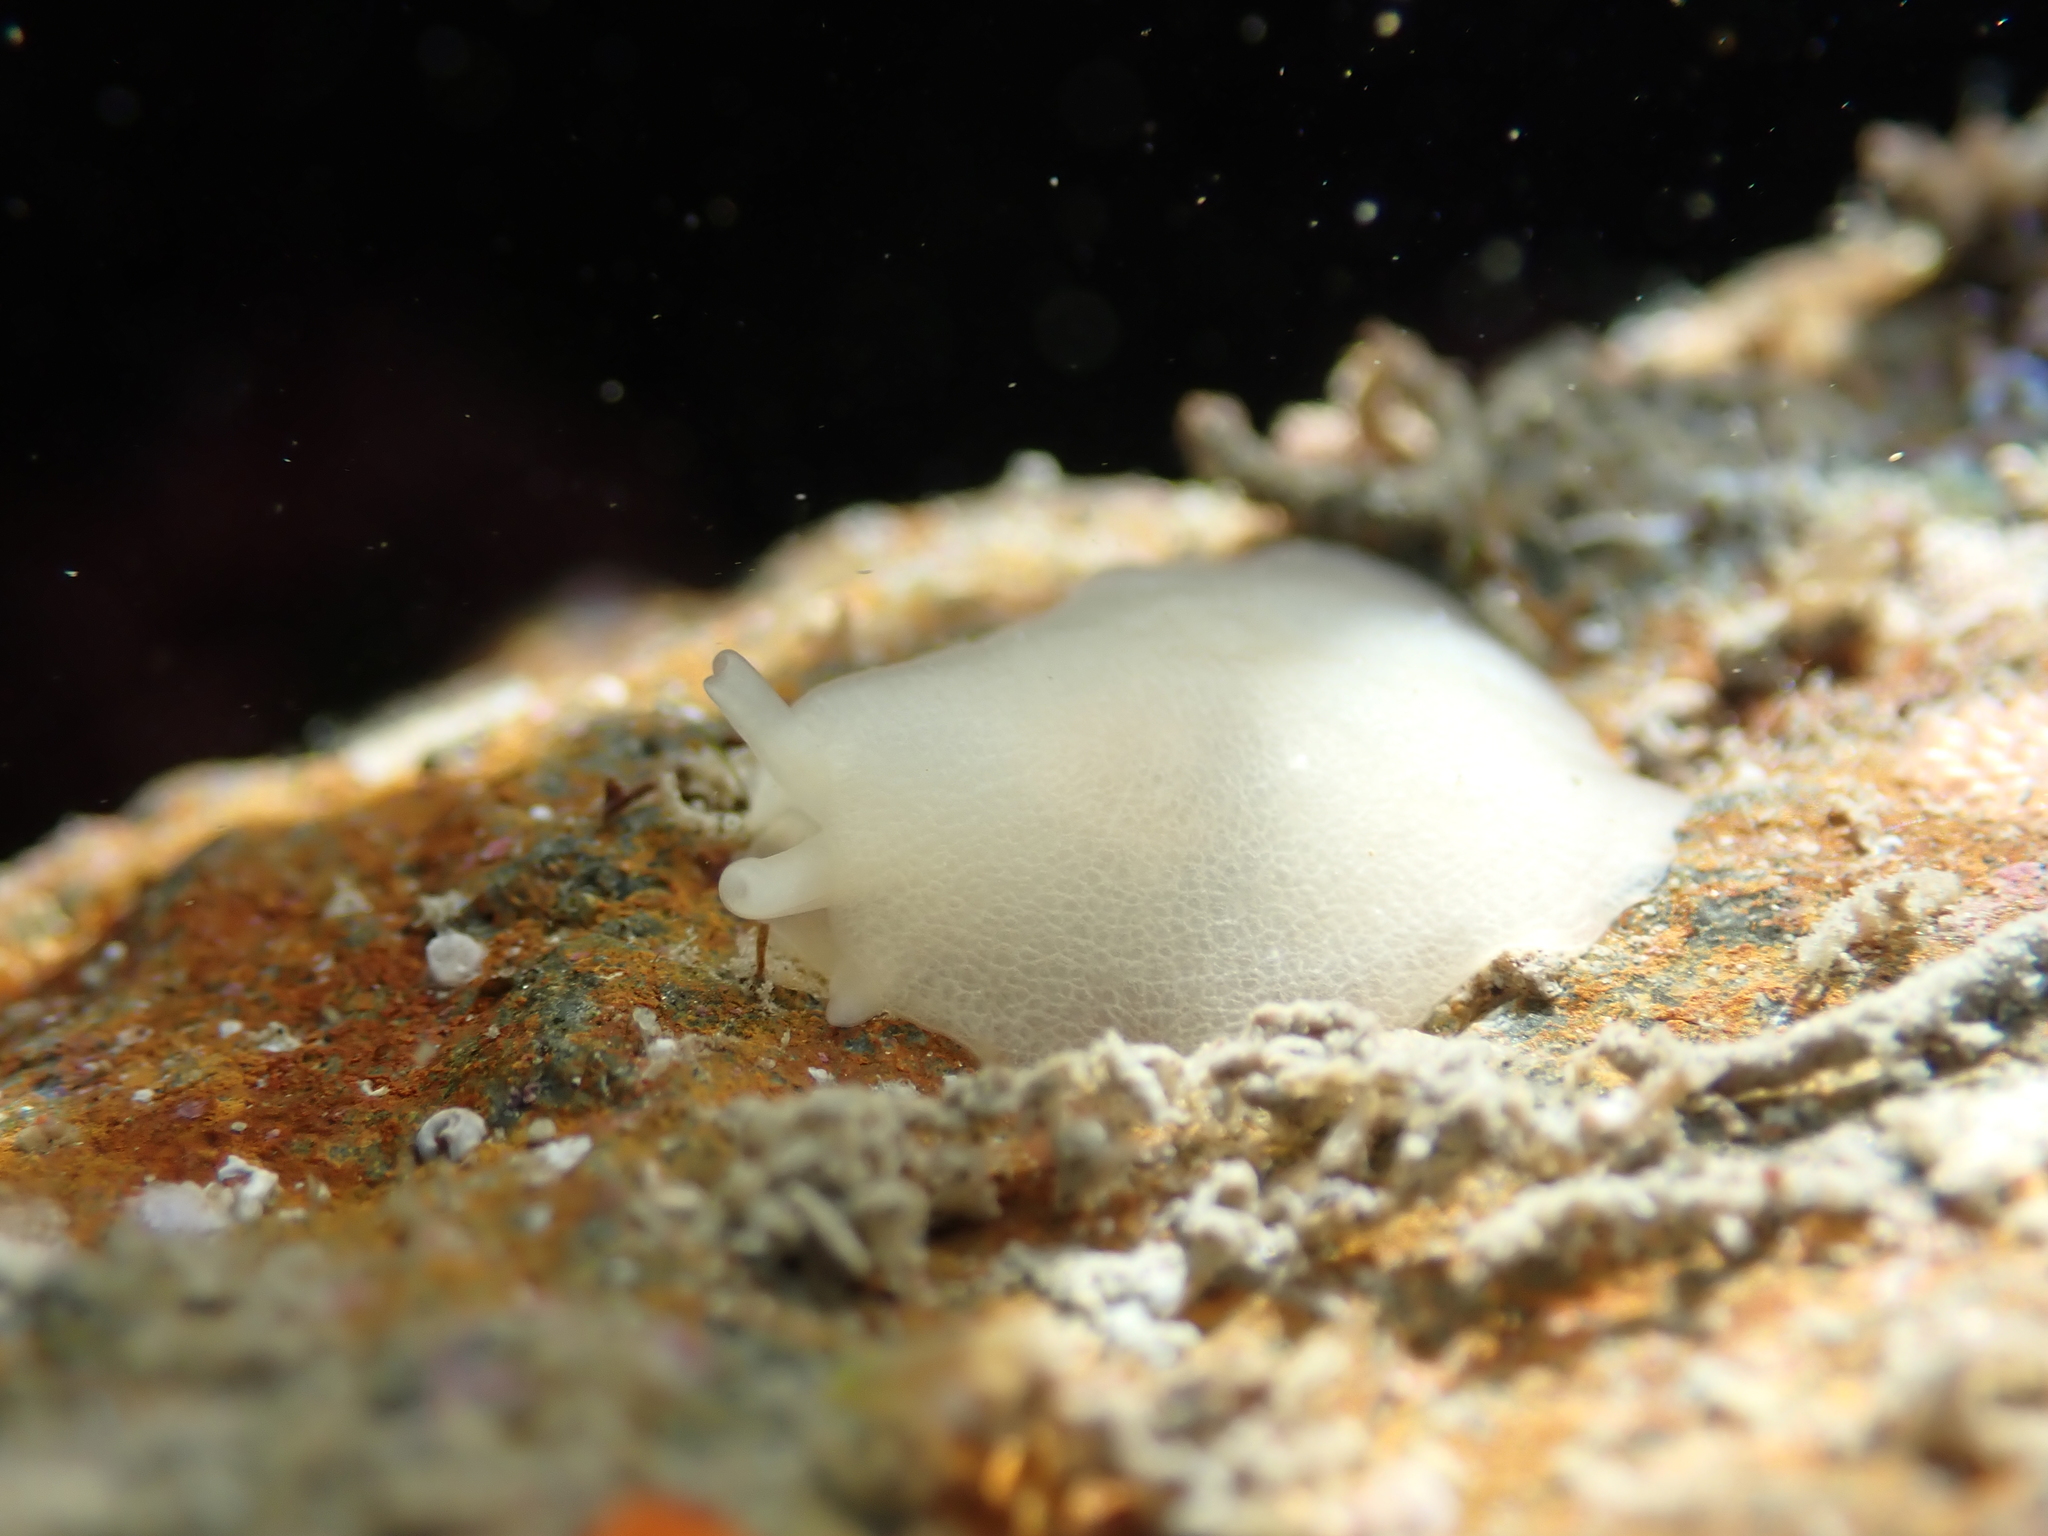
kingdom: Animalia
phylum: Mollusca
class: Gastropoda
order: Pleurobranchida
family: Pleurobranchidae
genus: Berthella
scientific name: Berthella medietas
